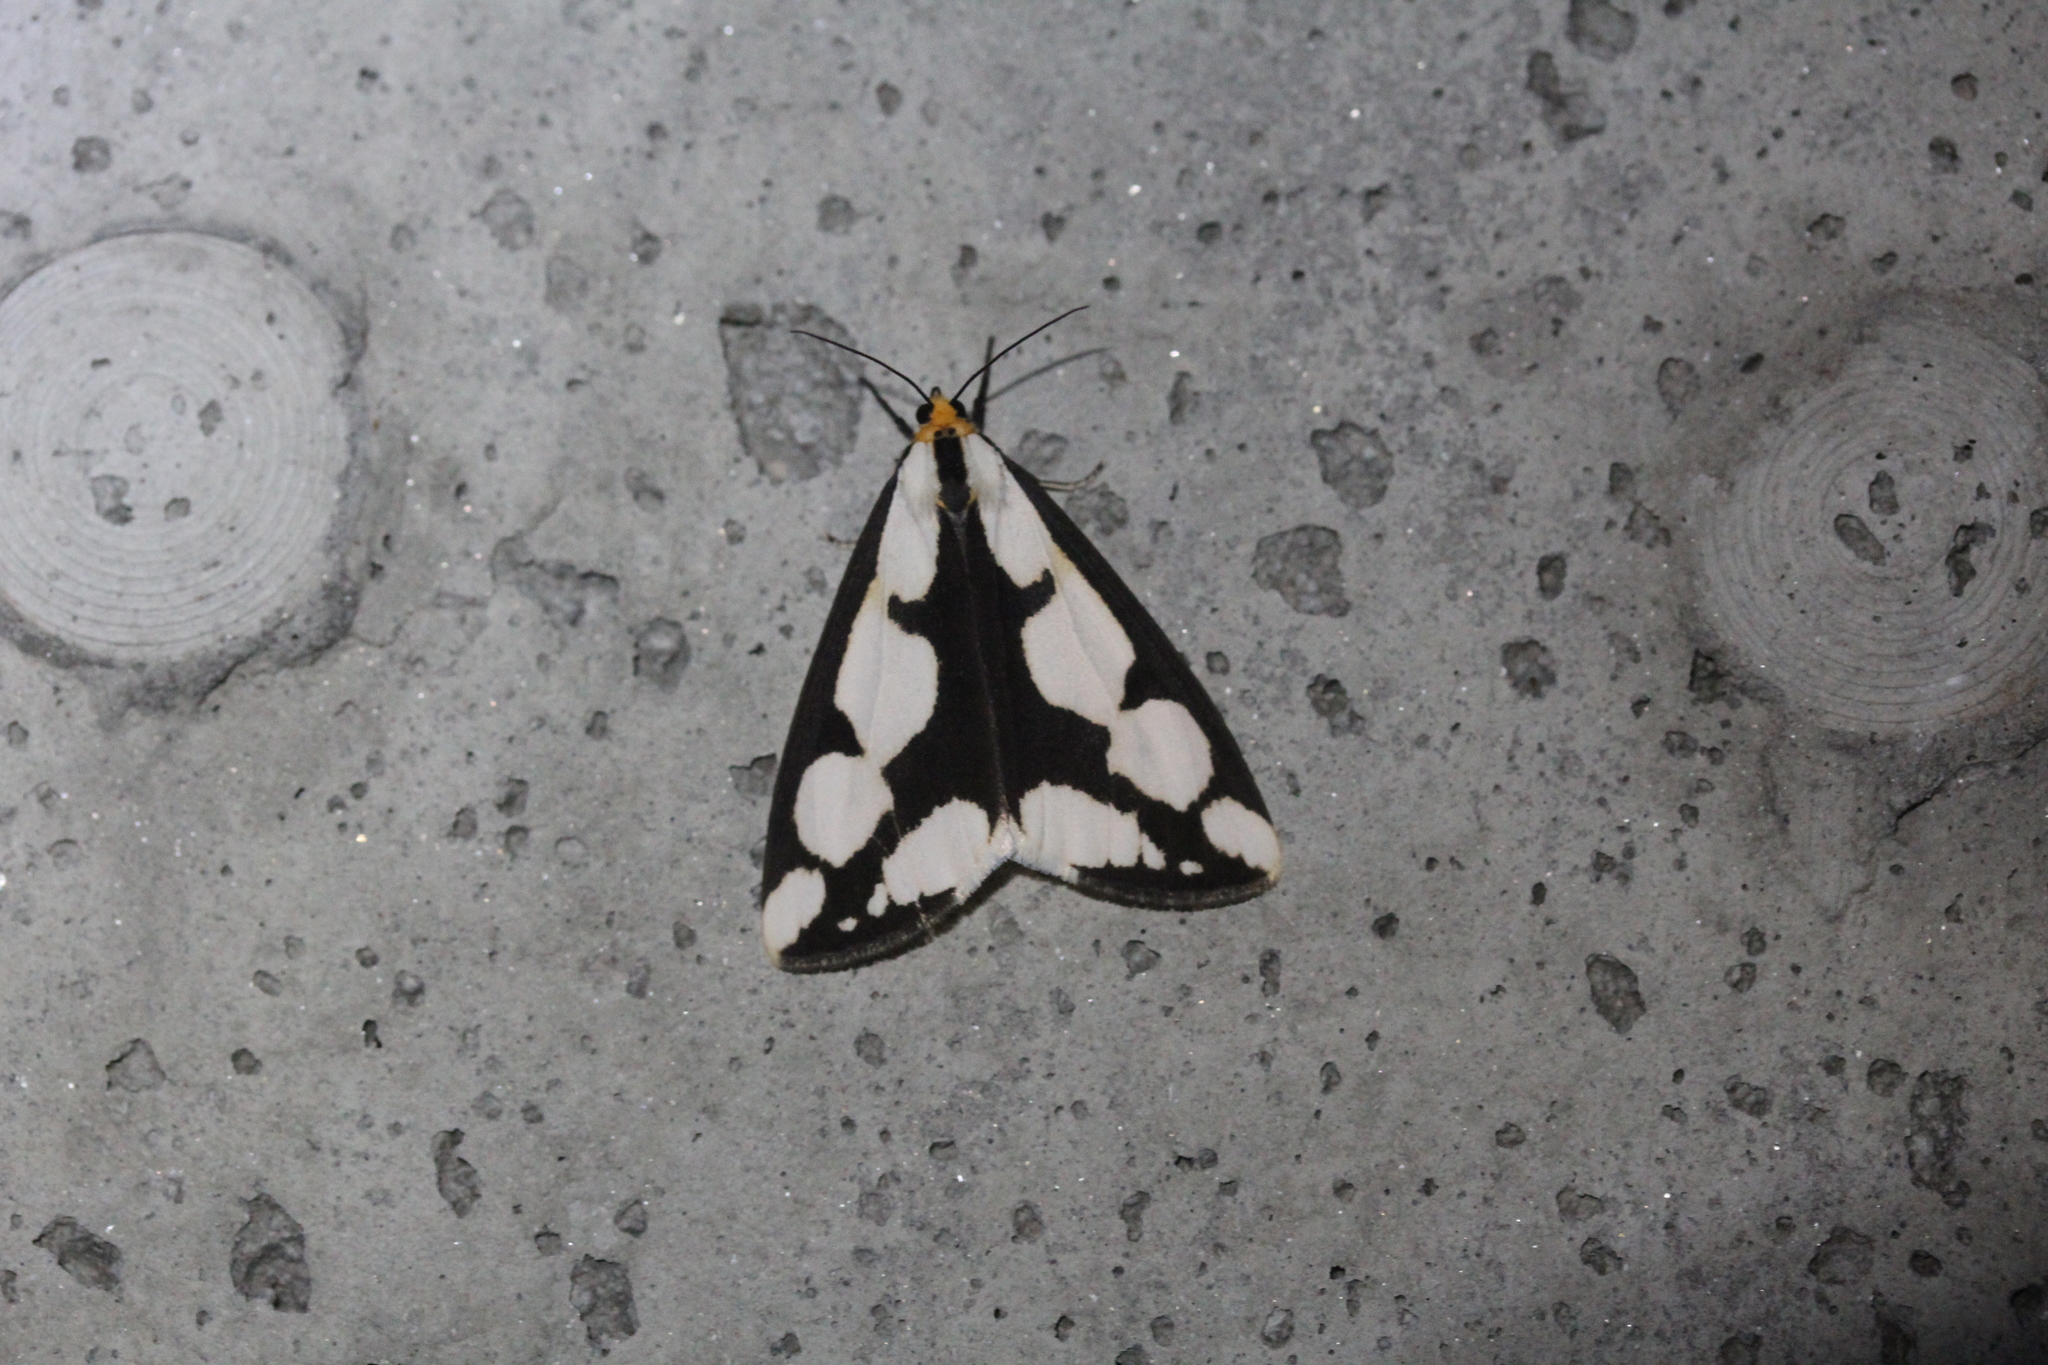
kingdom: Animalia
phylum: Arthropoda
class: Insecta
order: Lepidoptera
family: Erebidae
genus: Haploa
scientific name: Haploa lecontei
